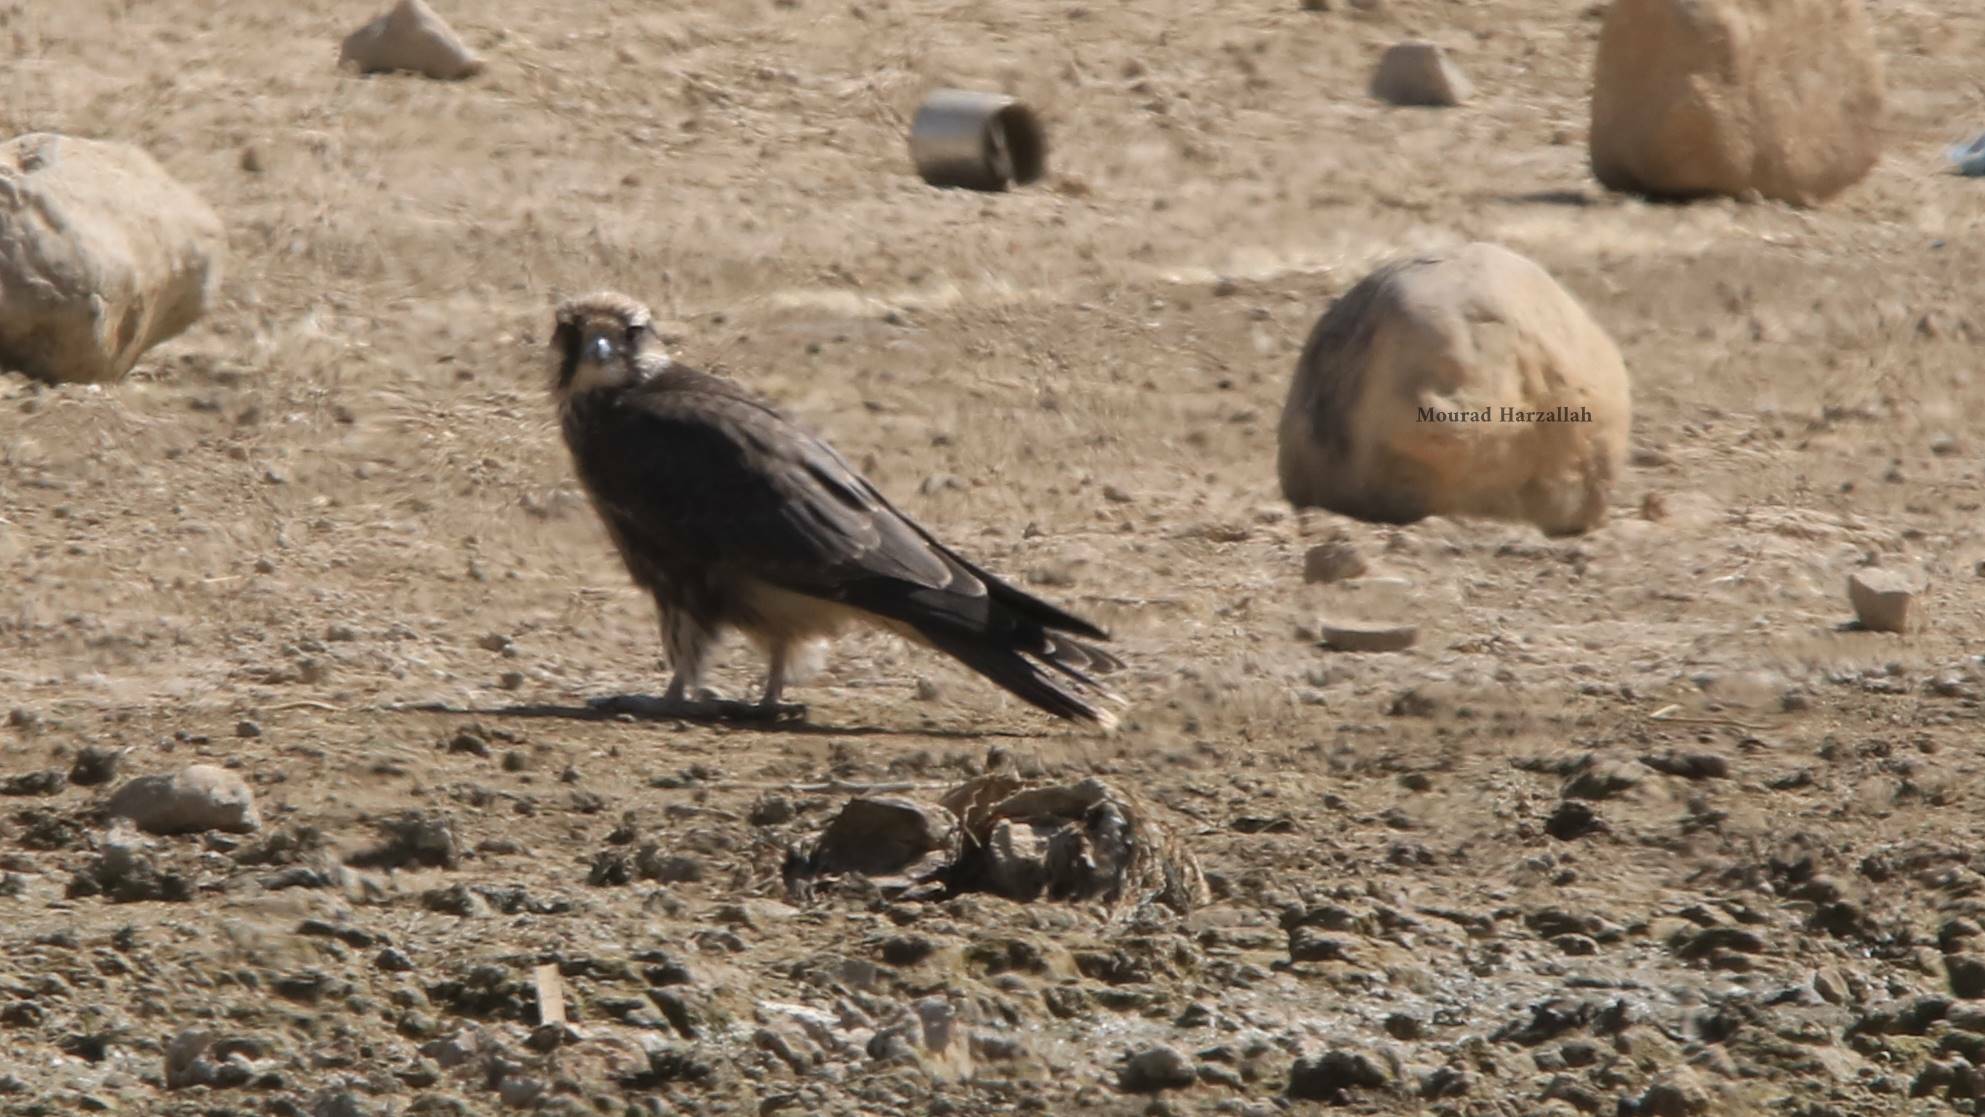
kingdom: Animalia
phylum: Chordata
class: Aves
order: Falconiformes
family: Falconidae
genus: Falco
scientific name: Falco biarmicus
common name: Lanner falcon
